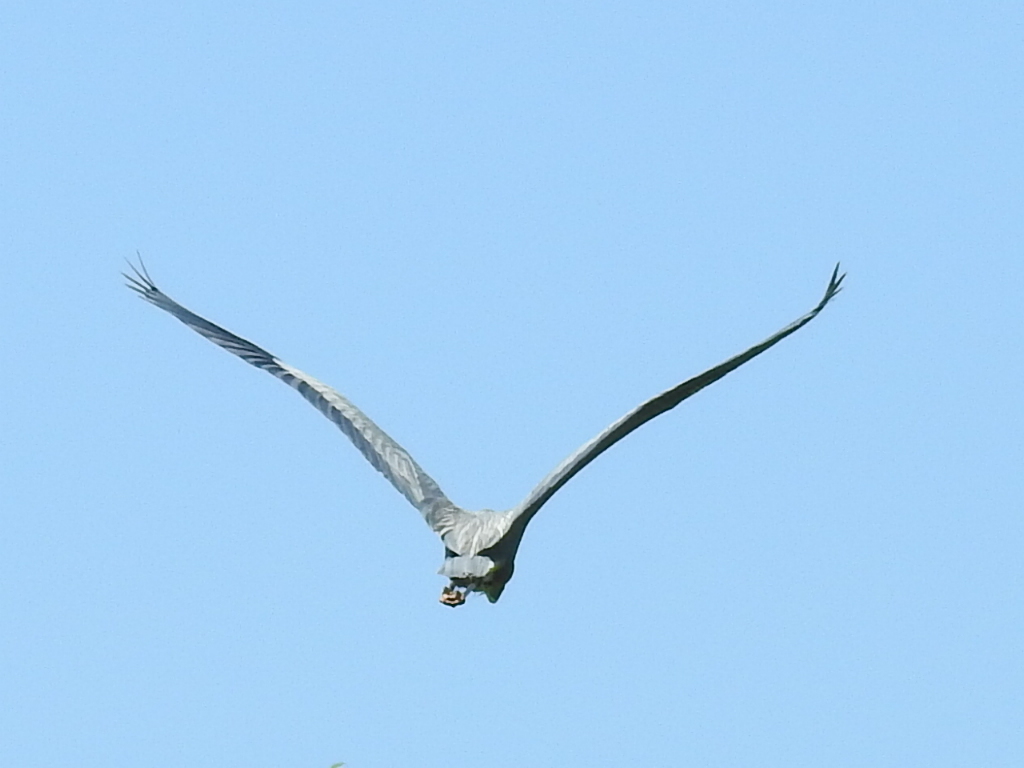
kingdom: Animalia
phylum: Chordata
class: Aves
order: Pelecaniformes
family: Ardeidae
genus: Ardea
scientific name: Ardea herodias
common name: Great blue heron
